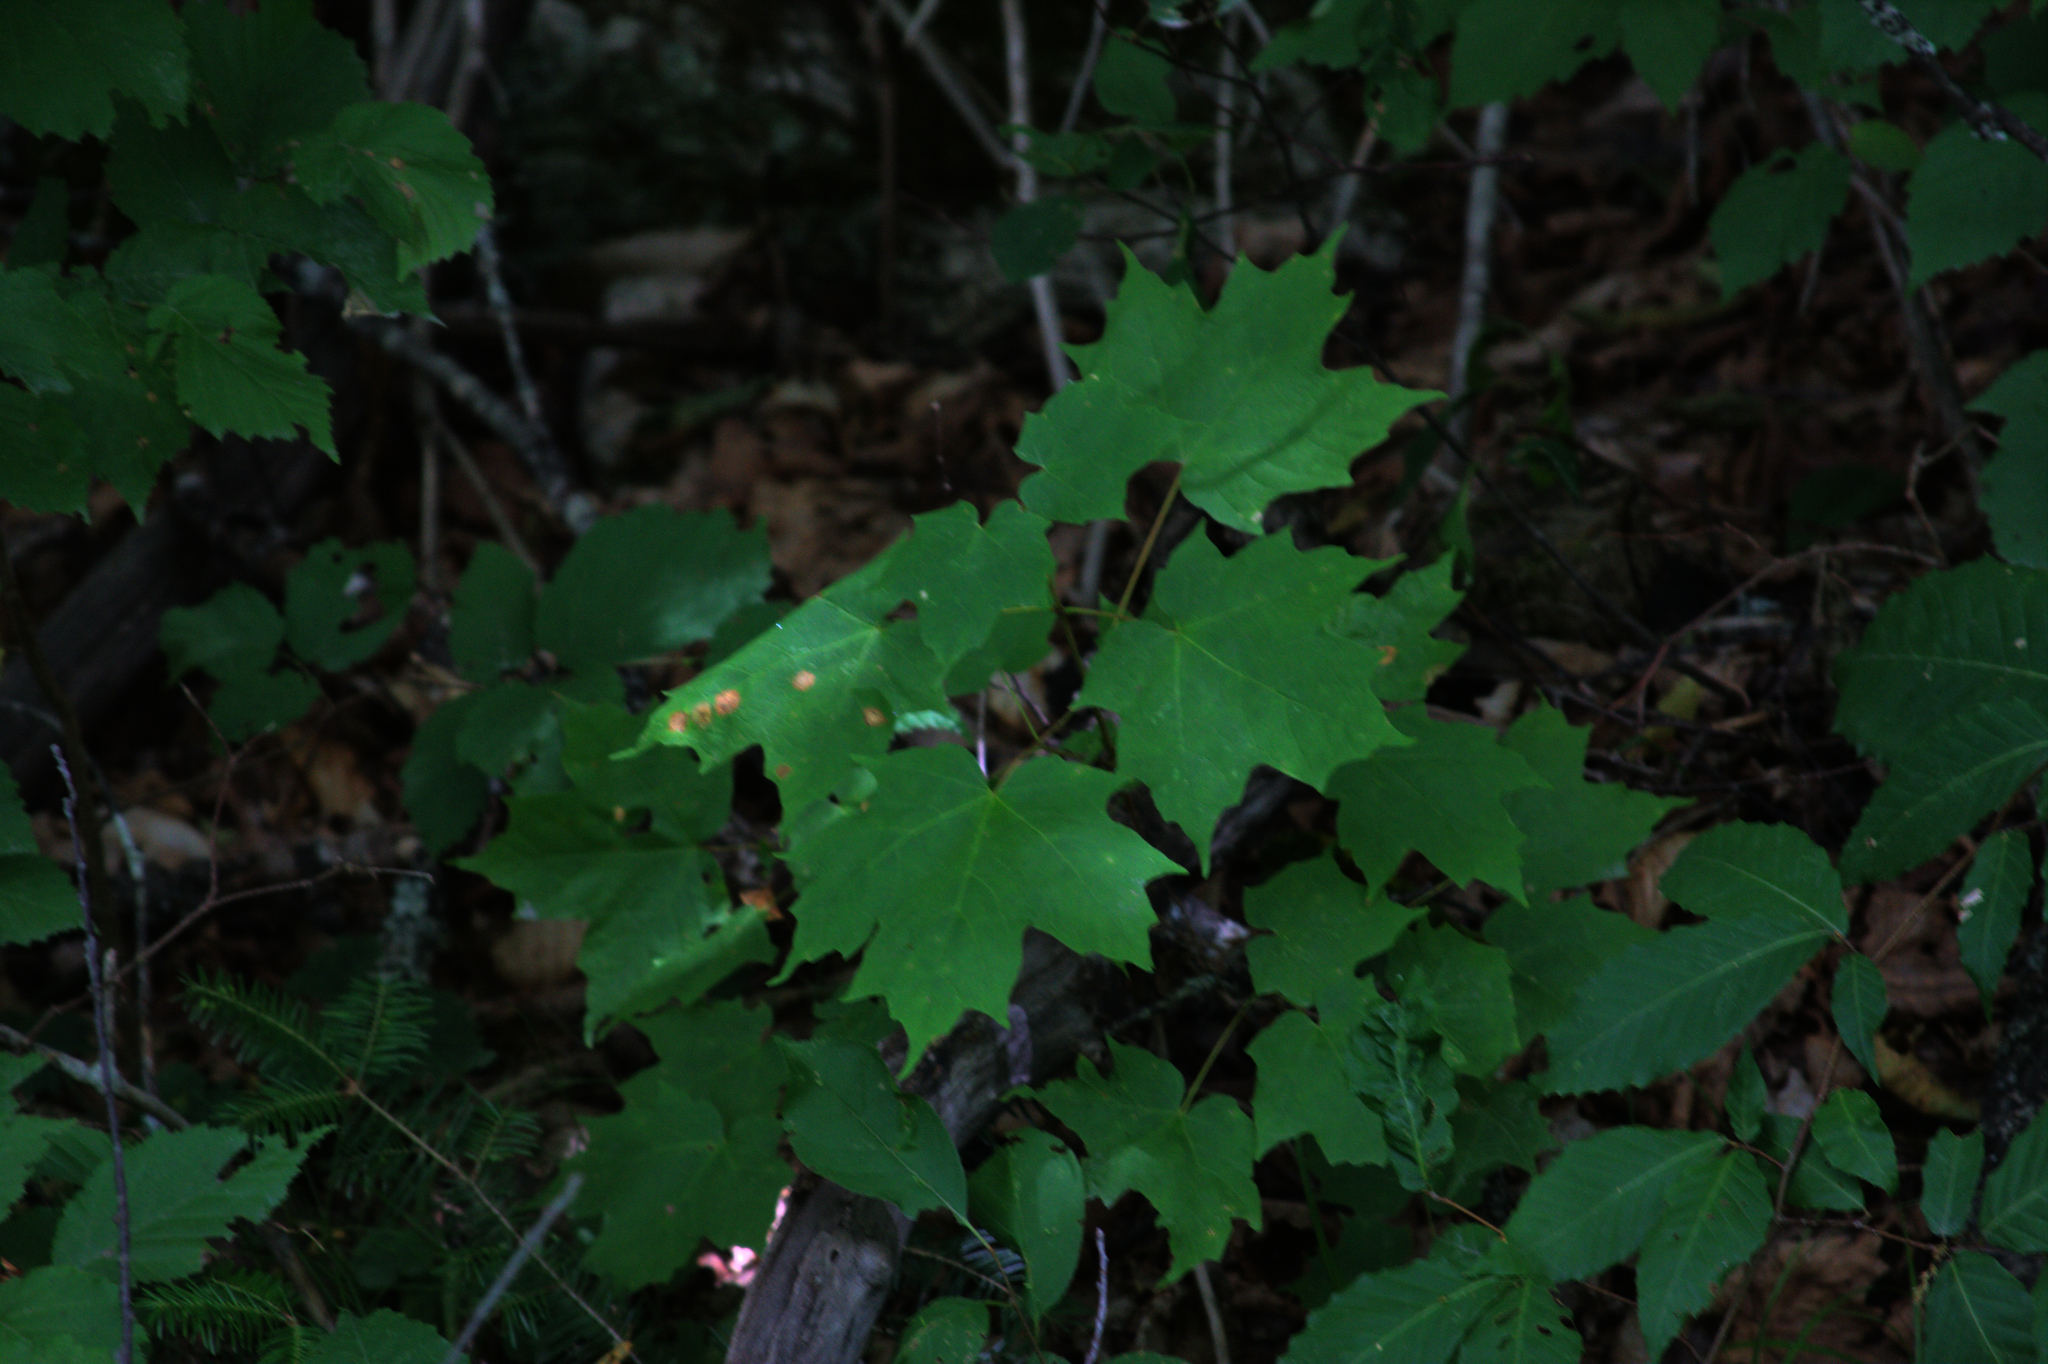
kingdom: Plantae
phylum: Tracheophyta
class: Magnoliopsida
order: Sapindales
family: Sapindaceae
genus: Acer
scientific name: Acer saccharum
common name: Sugar maple
